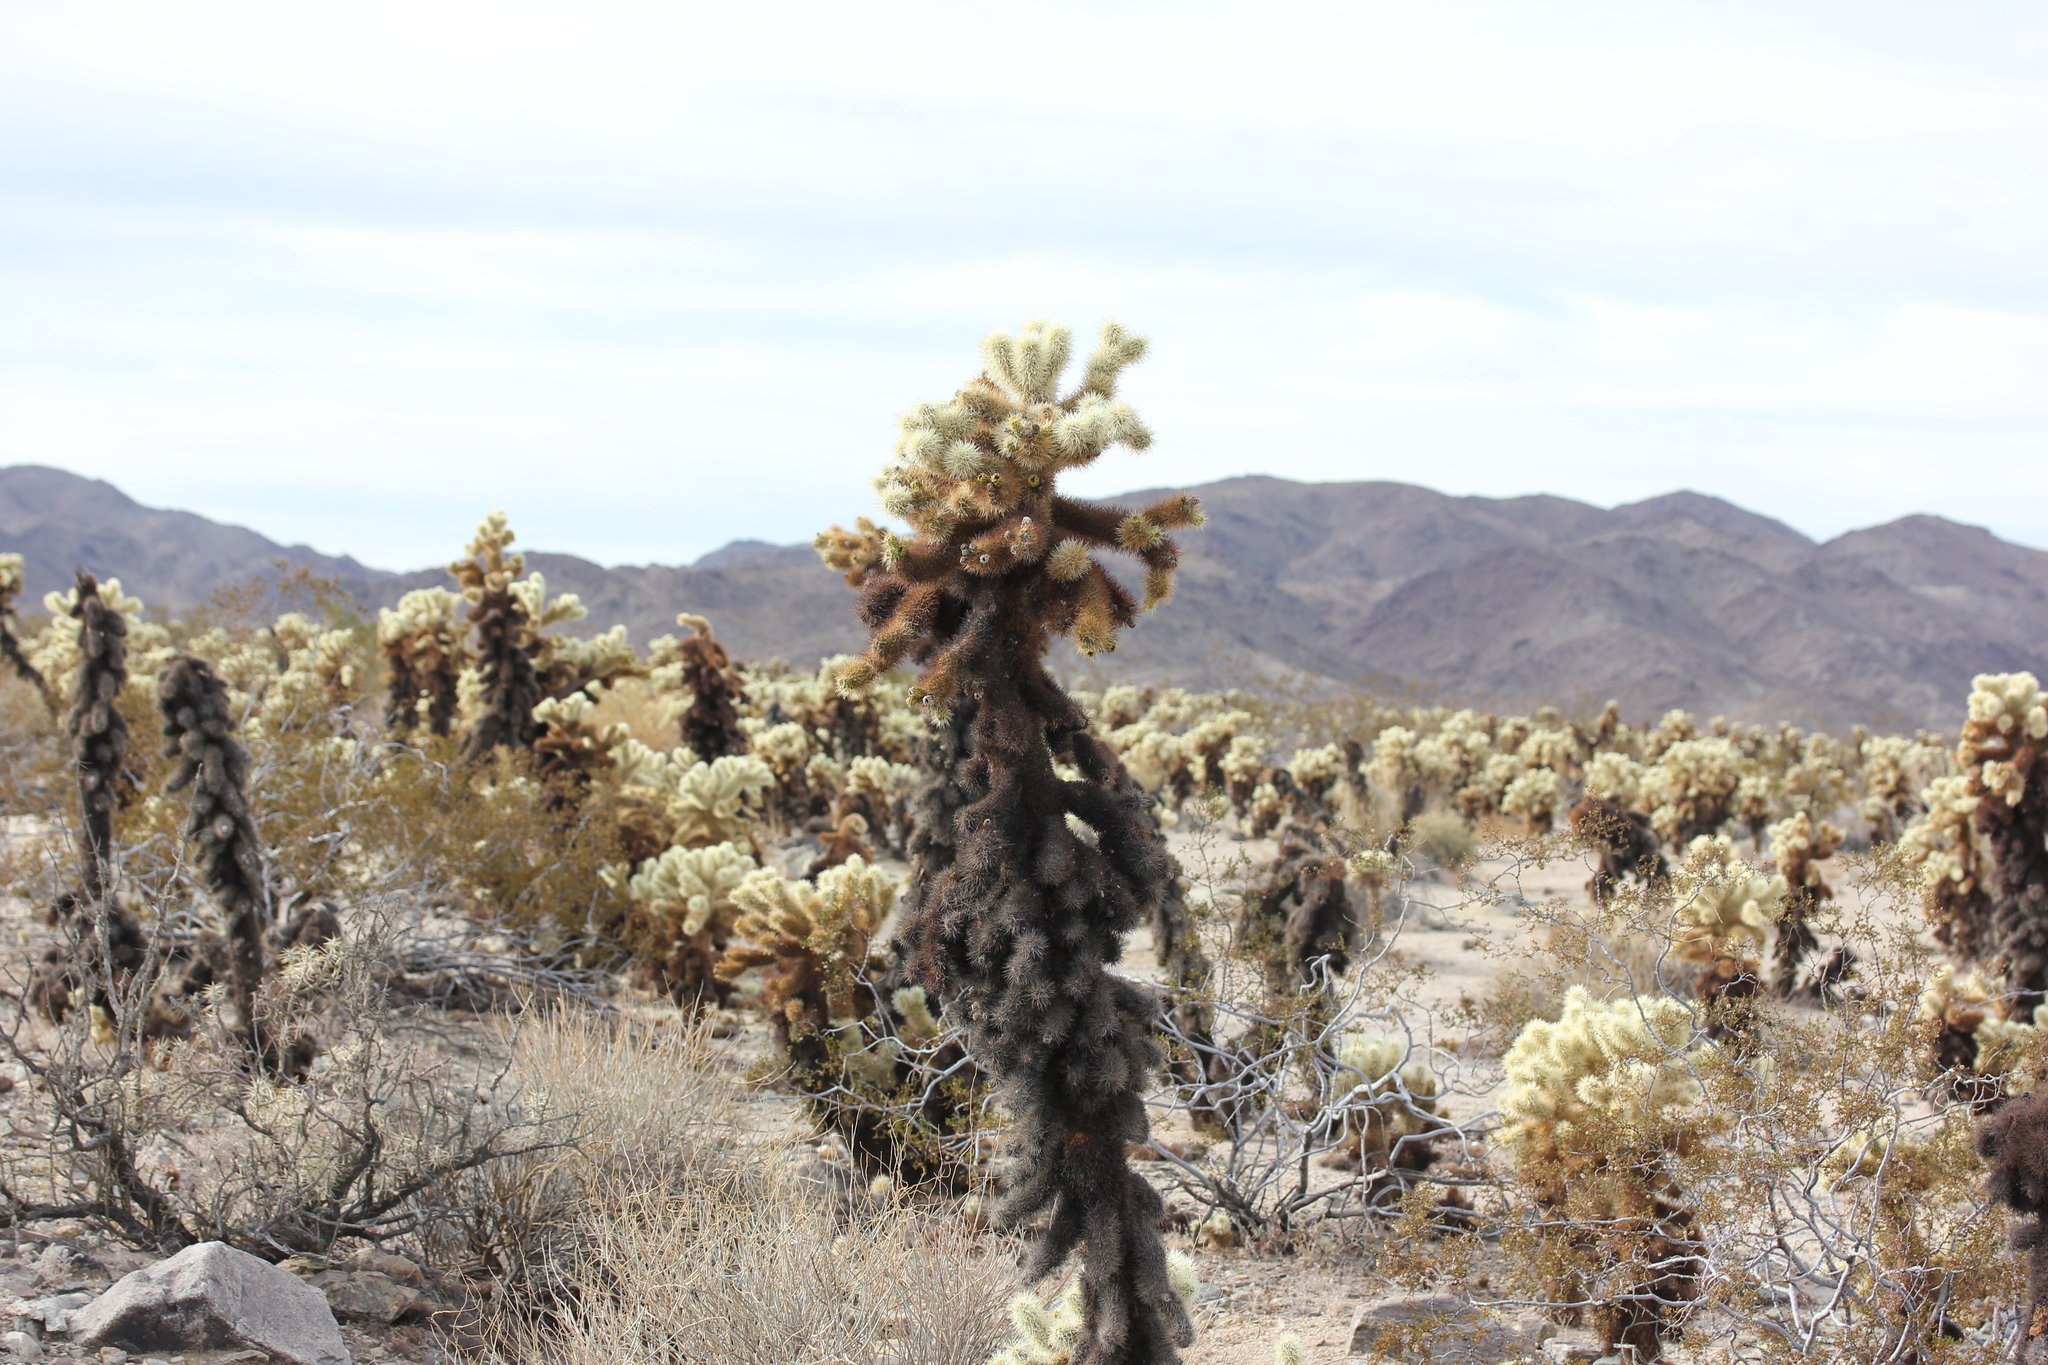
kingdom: Plantae
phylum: Tracheophyta
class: Magnoliopsida
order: Caryophyllales
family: Cactaceae
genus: Cylindropuntia
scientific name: Cylindropuntia fosbergii
